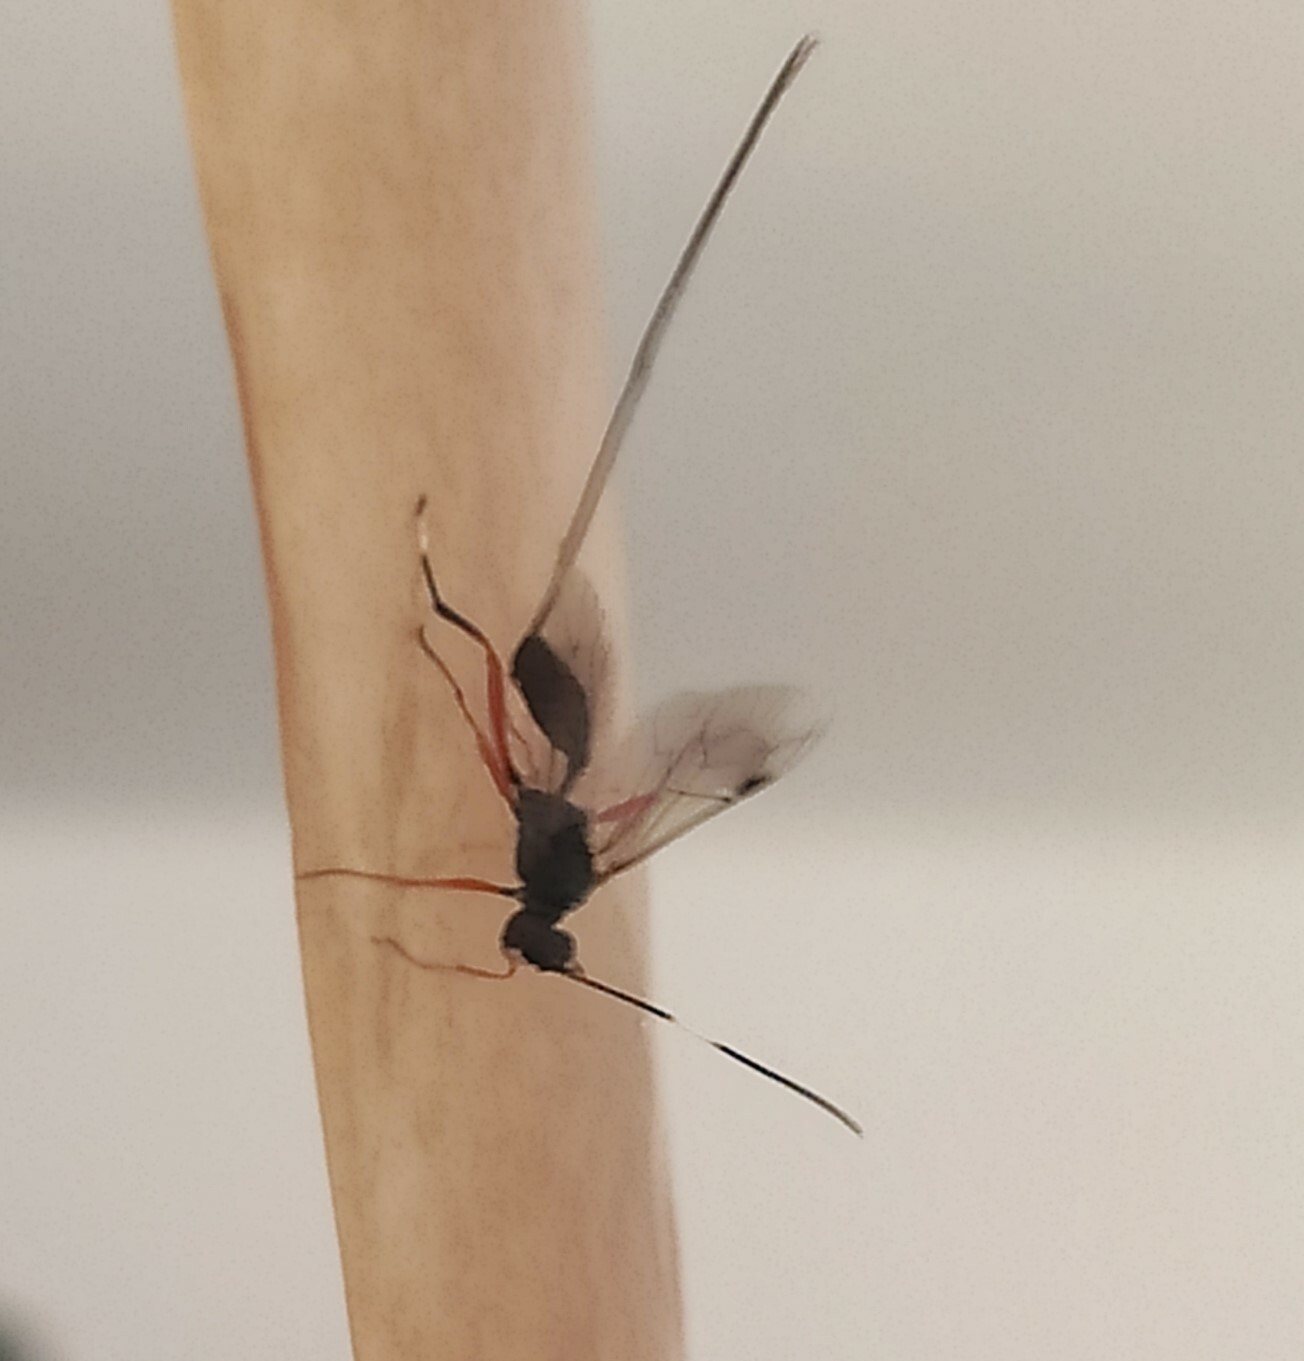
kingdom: Animalia
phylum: Arthropoda
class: Insecta
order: Hymenoptera
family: Ichneumonidae
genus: Stenarella
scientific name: Stenarella domator
